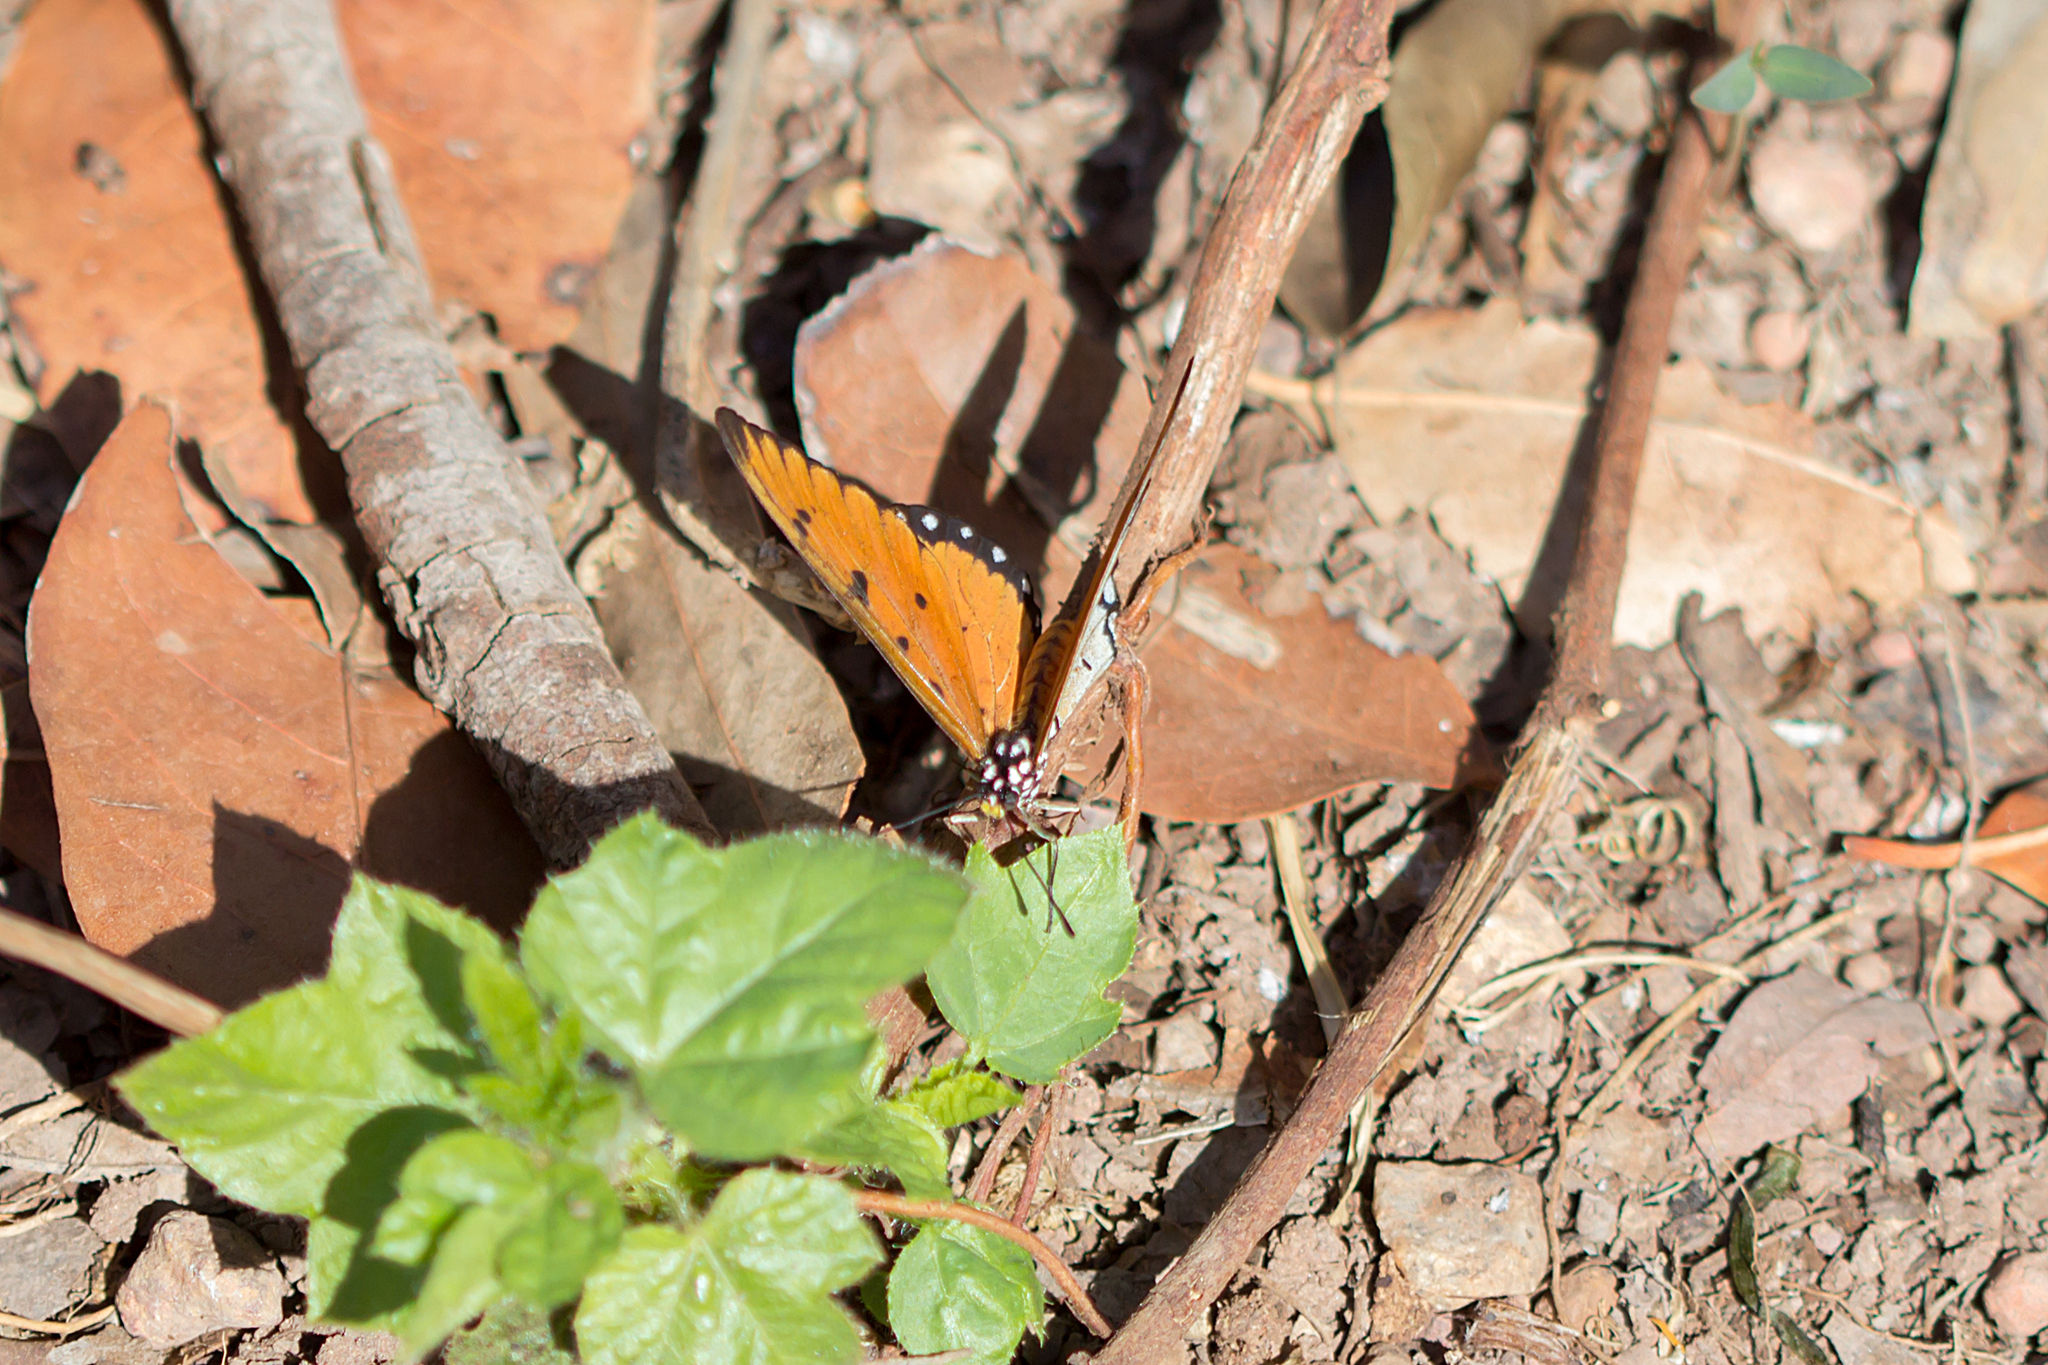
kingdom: Animalia
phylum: Arthropoda
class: Insecta
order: Lepidoptera
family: Nymphalidae
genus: Acraea
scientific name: Acraea terpsicore
